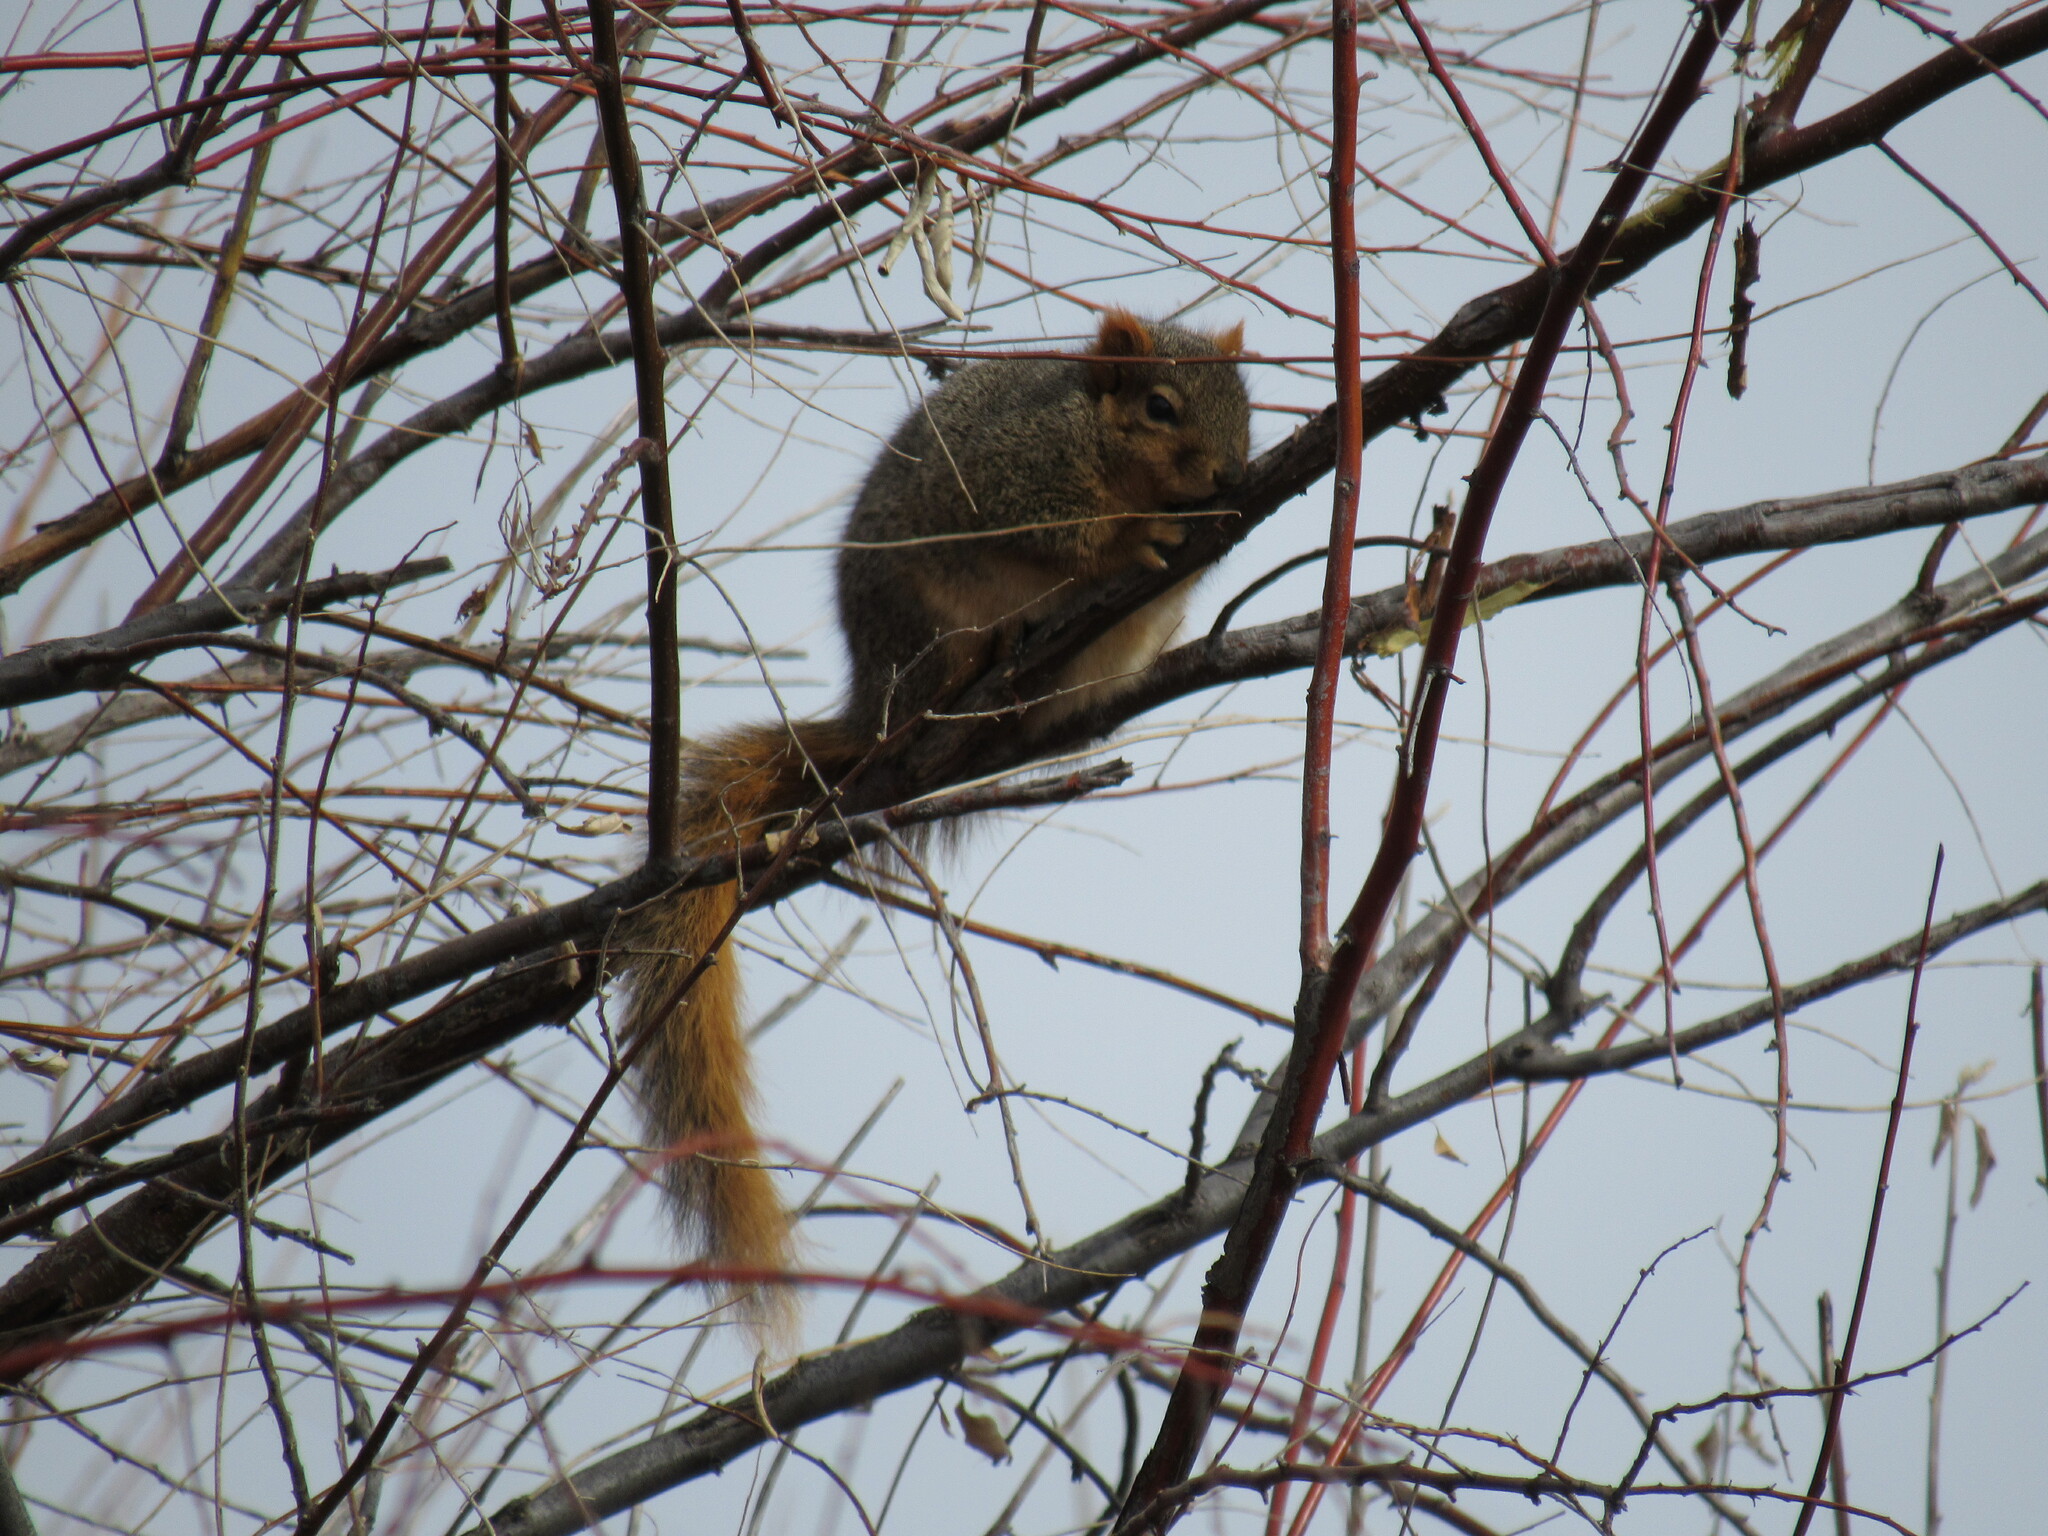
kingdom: Animalia
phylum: Chordata
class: Mammalia
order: Rodentia
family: Sciuridae
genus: Sciurus
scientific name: Sciurus niger
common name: Fox squirrel
